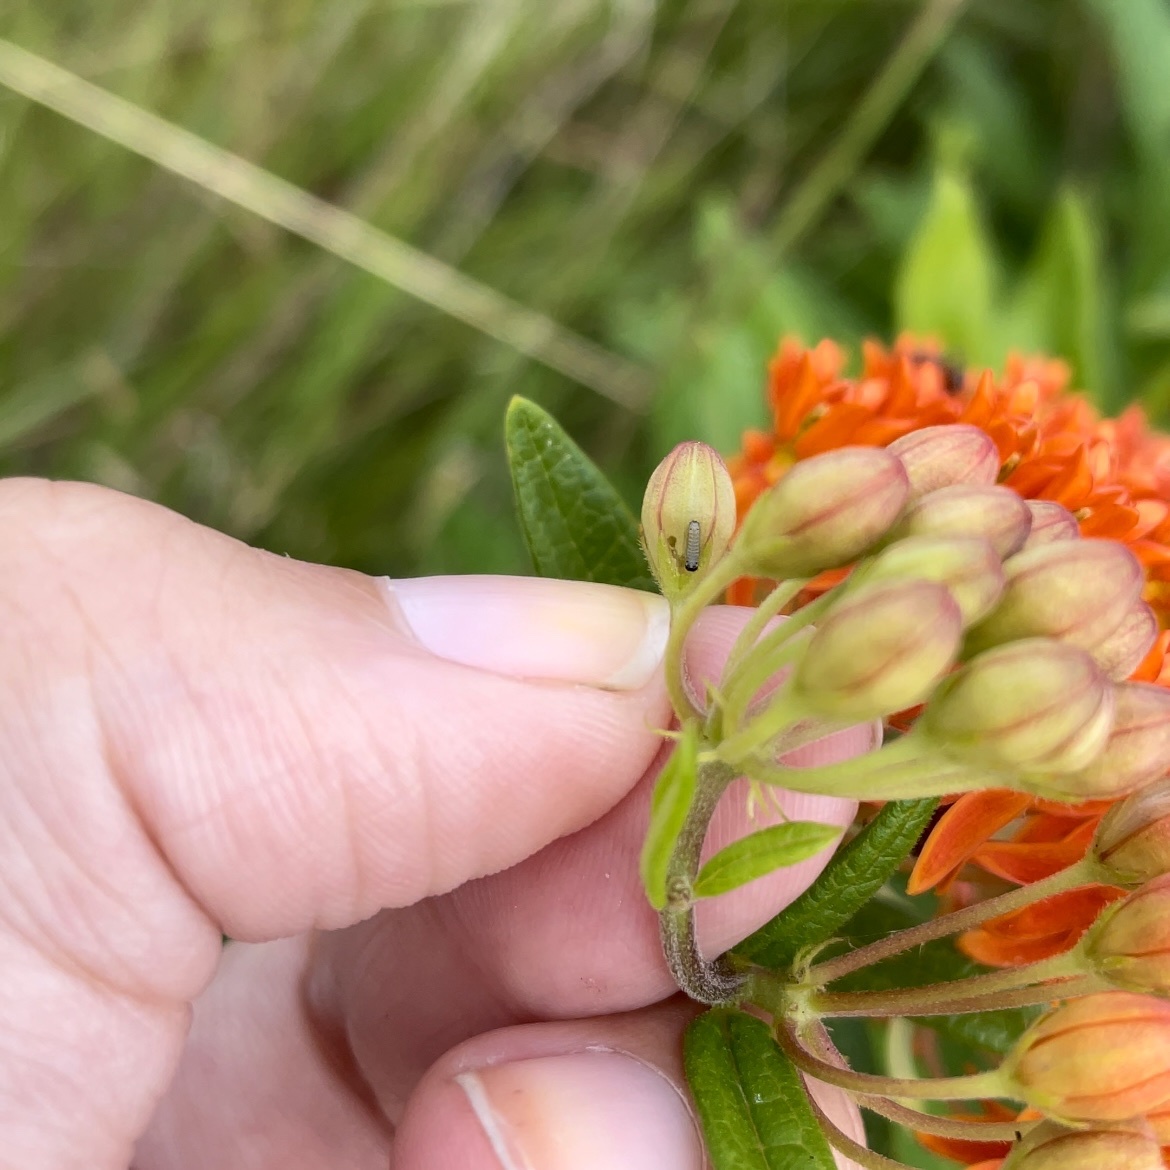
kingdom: Animalia
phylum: Arthropoda
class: Insecta
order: Lepidoptera
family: Nymphalidae
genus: Danaus
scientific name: Danaus plexippus
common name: Monarch
